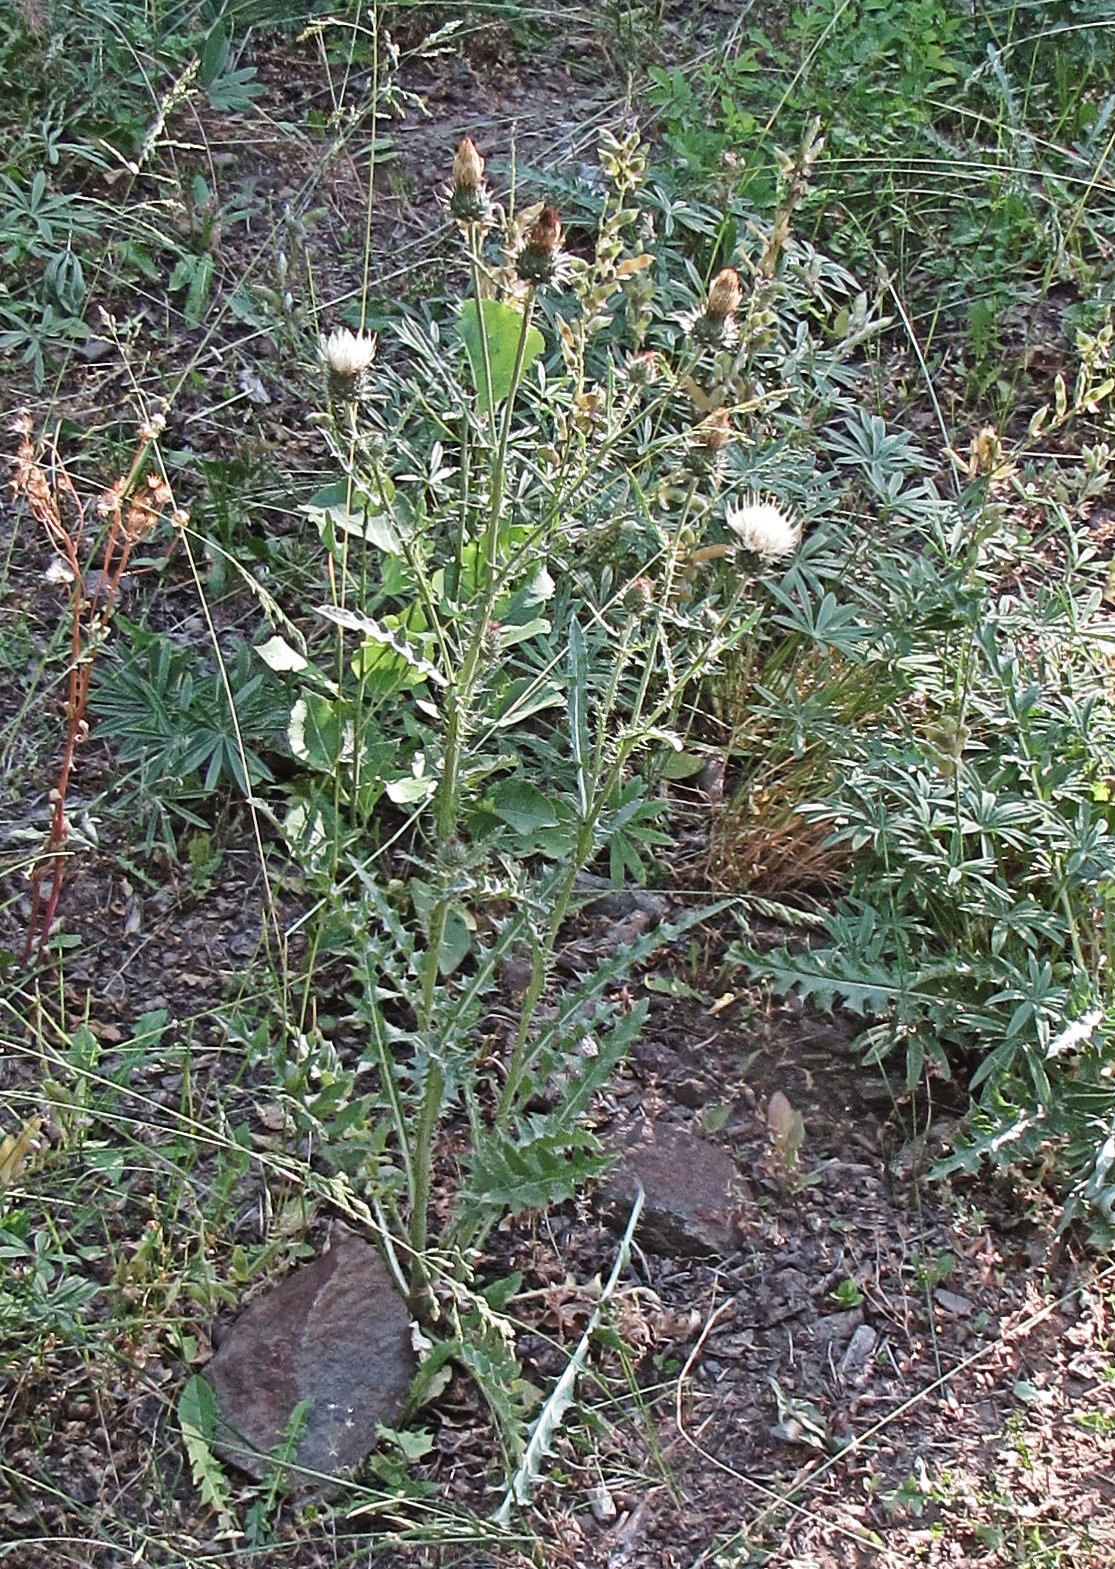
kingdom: Plantae
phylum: Tracheophyta
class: Magnoliopsida
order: Asterales
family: Asteraceae
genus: Cirsium
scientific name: Cirsium inamoenum
